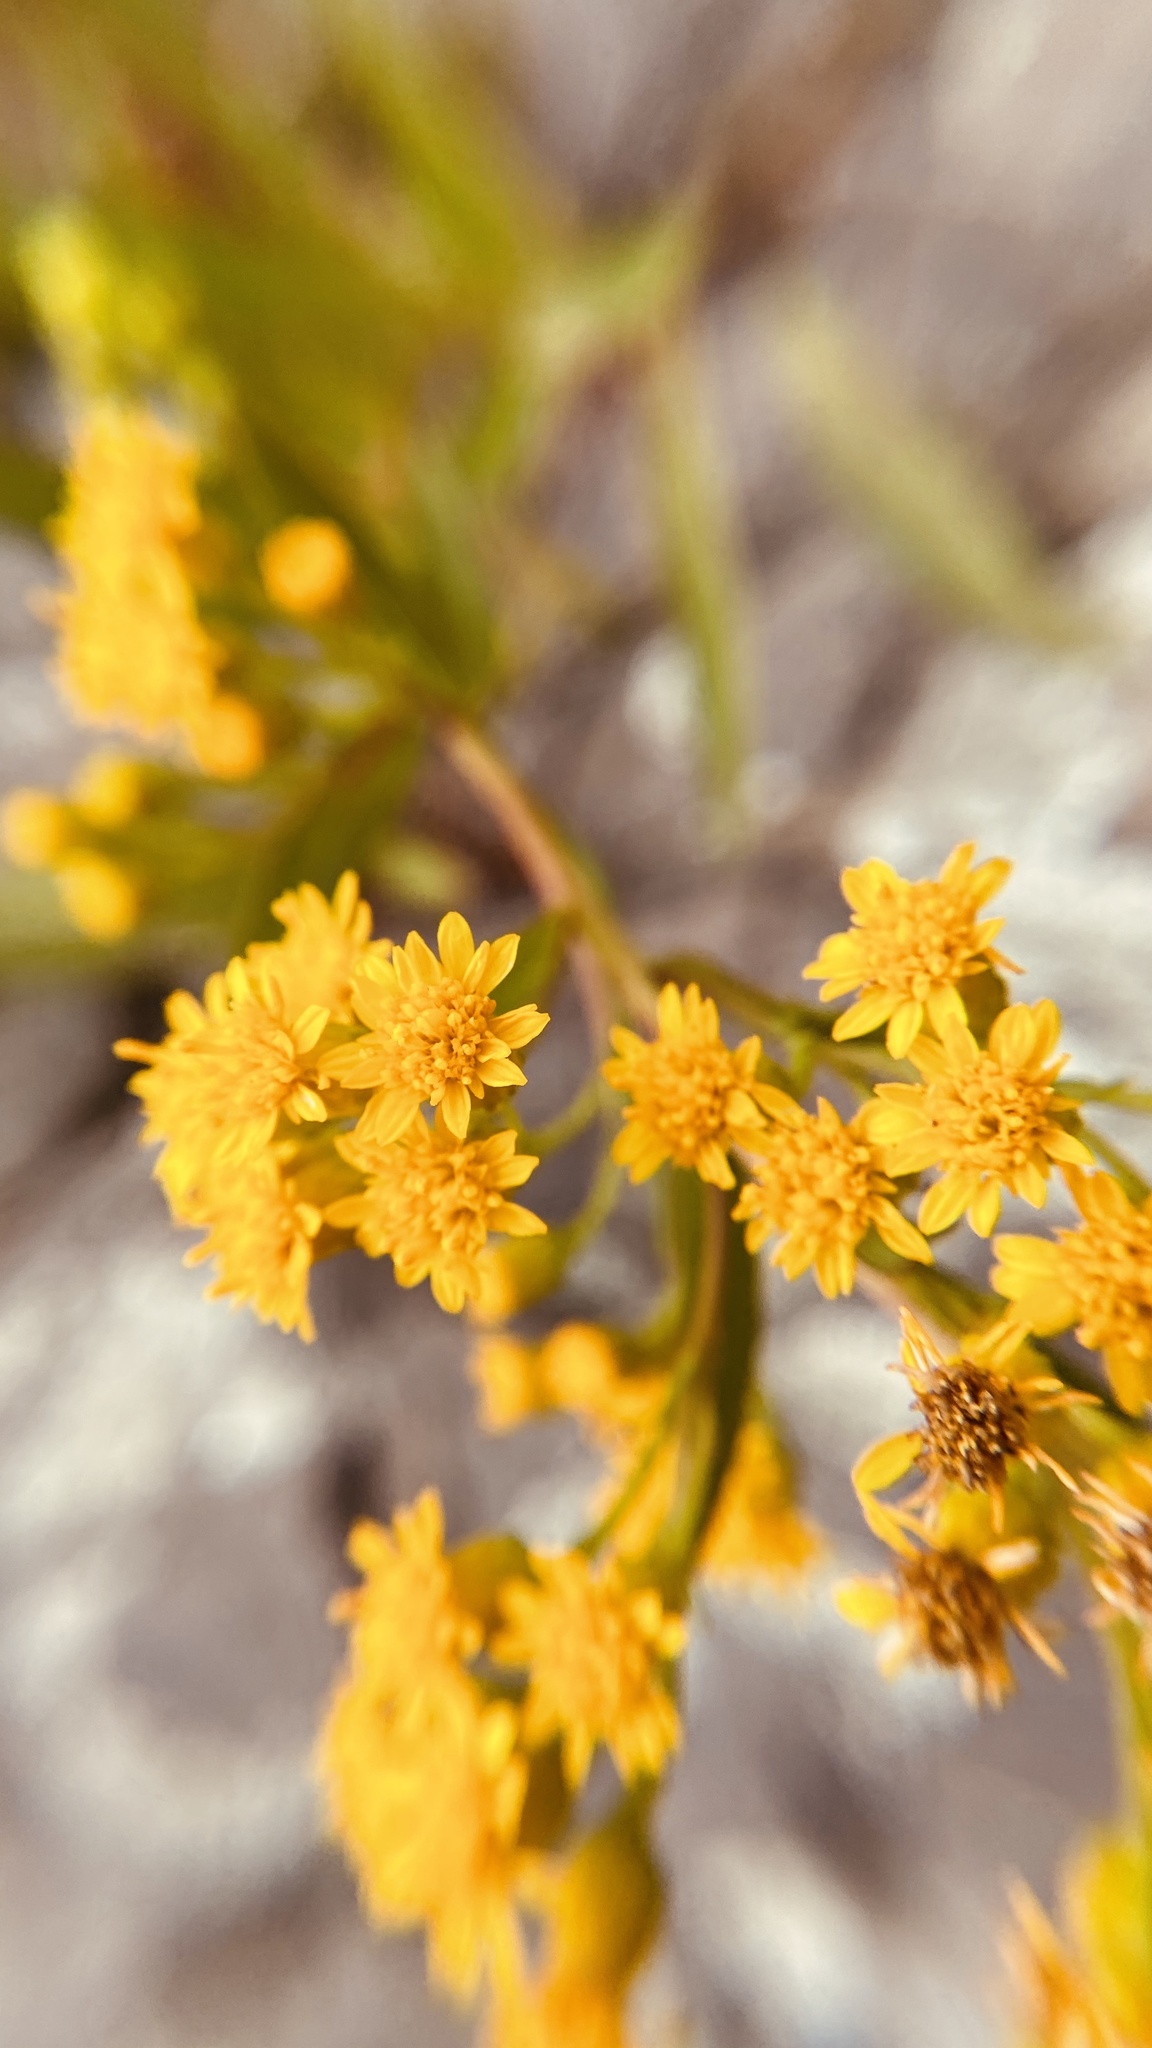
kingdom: Plantae
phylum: Tracheophyta
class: Magnoliopsida
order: Asterales
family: Asteraceae
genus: Solidago
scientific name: Solidago sempervirens
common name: Salt-marsh goldenrod
